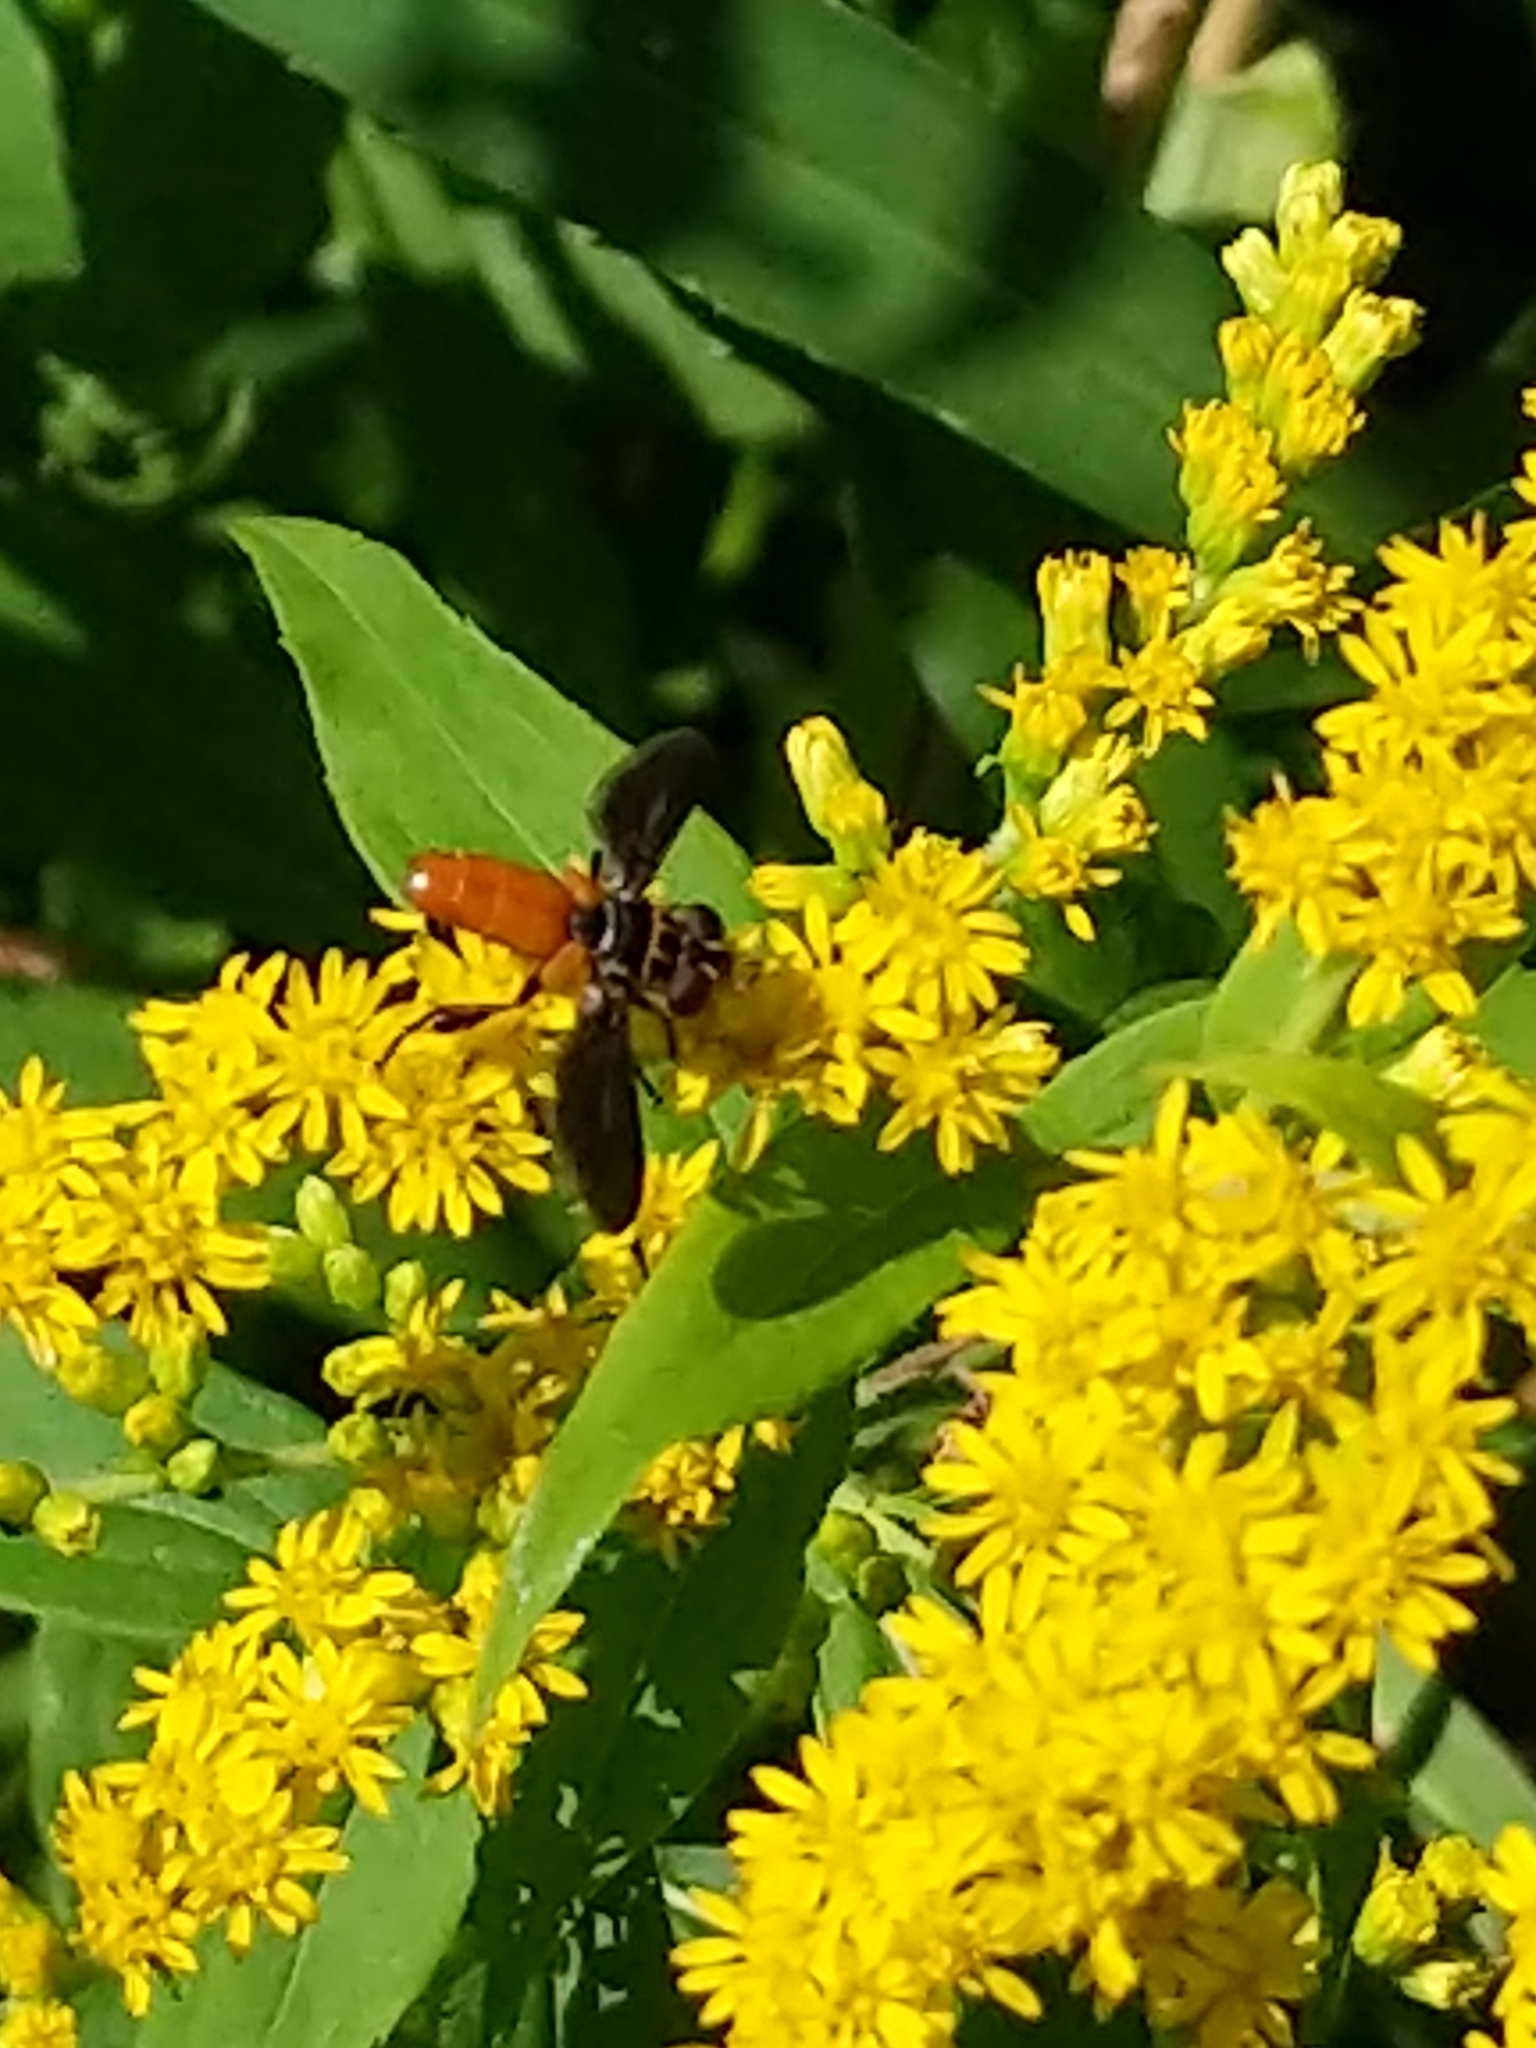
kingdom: Animalia
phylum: Arthropoda
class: Insecta
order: Diptera
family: Tachinidae
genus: Trichopoda
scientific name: Trichopoda pennipes
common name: Tachinid fly
